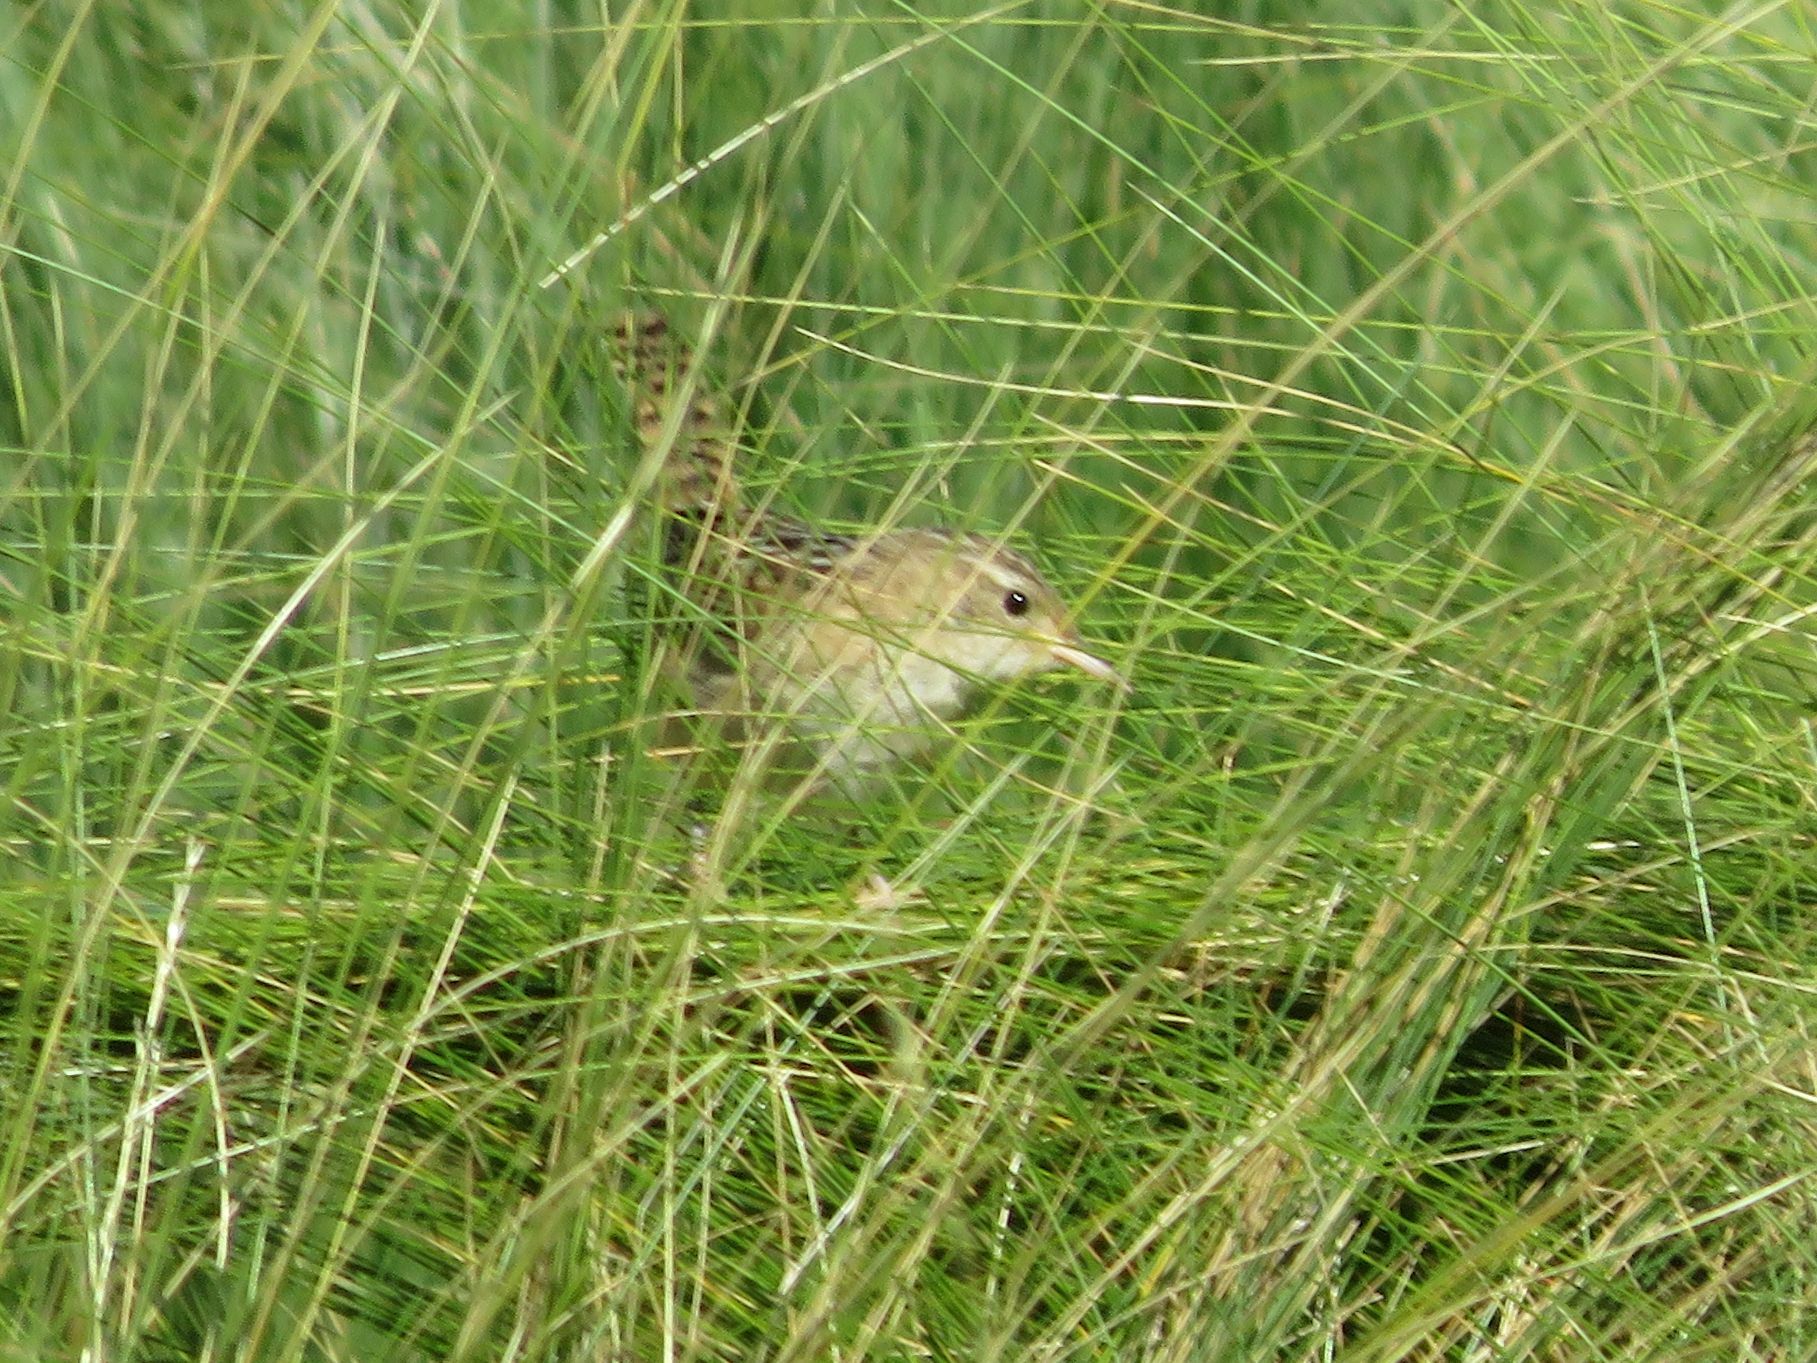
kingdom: Animalia
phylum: Chordata
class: Aves
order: Passeriformes
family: Troglodytidae
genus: Cistothorus
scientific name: Cistothorus platensis
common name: Sedge wren
